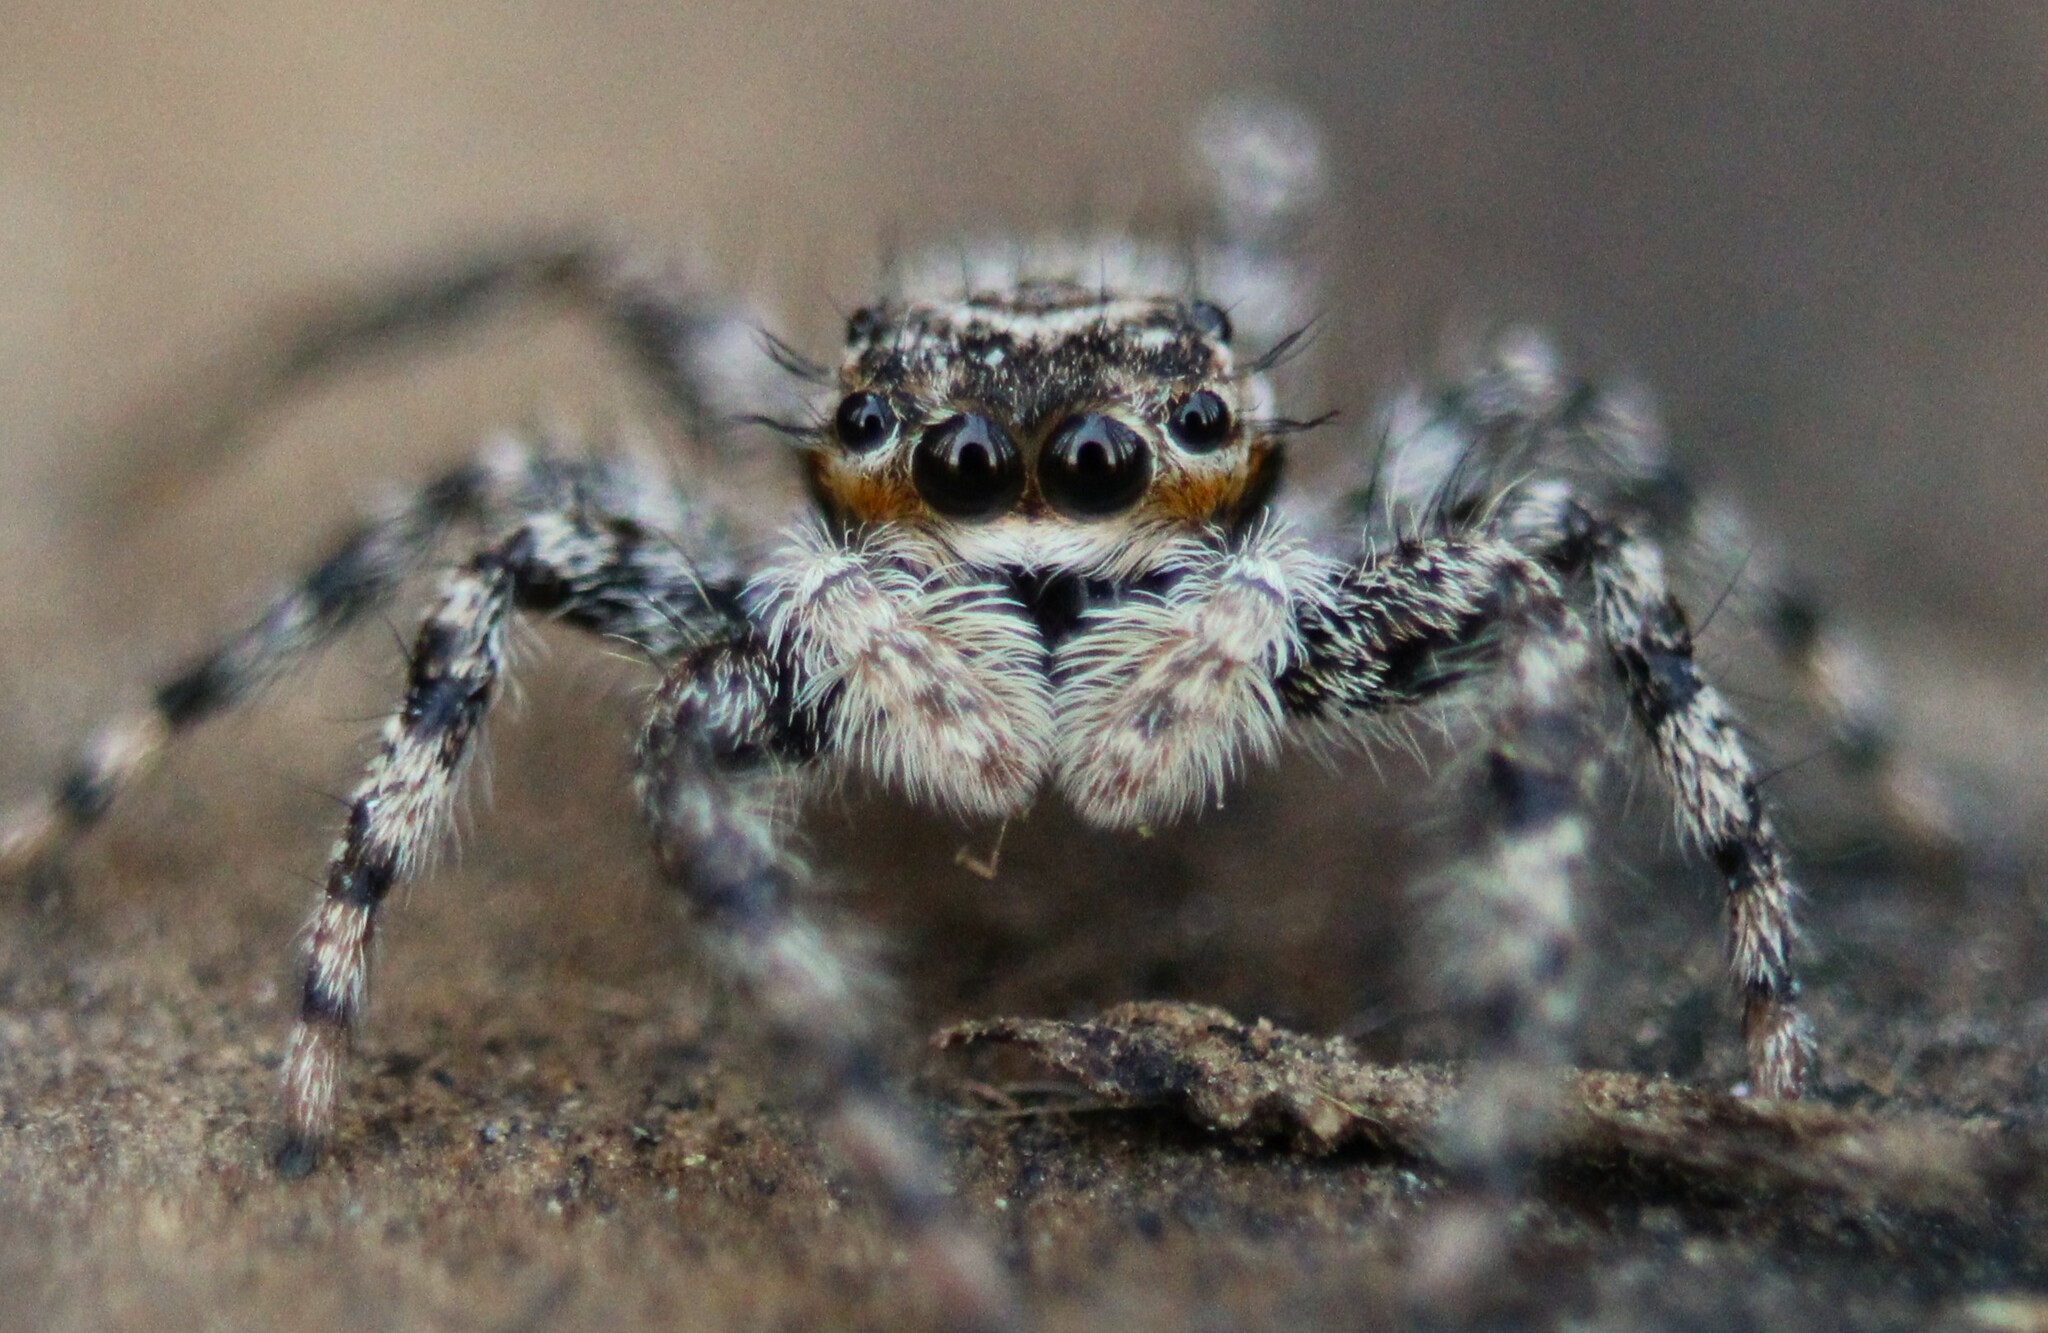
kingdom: Animalia
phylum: Arthropoda
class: Arachnida
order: Araneae
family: Salticidae
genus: Platycryptus
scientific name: Platycryptus undatus
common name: Tan jumping spider
